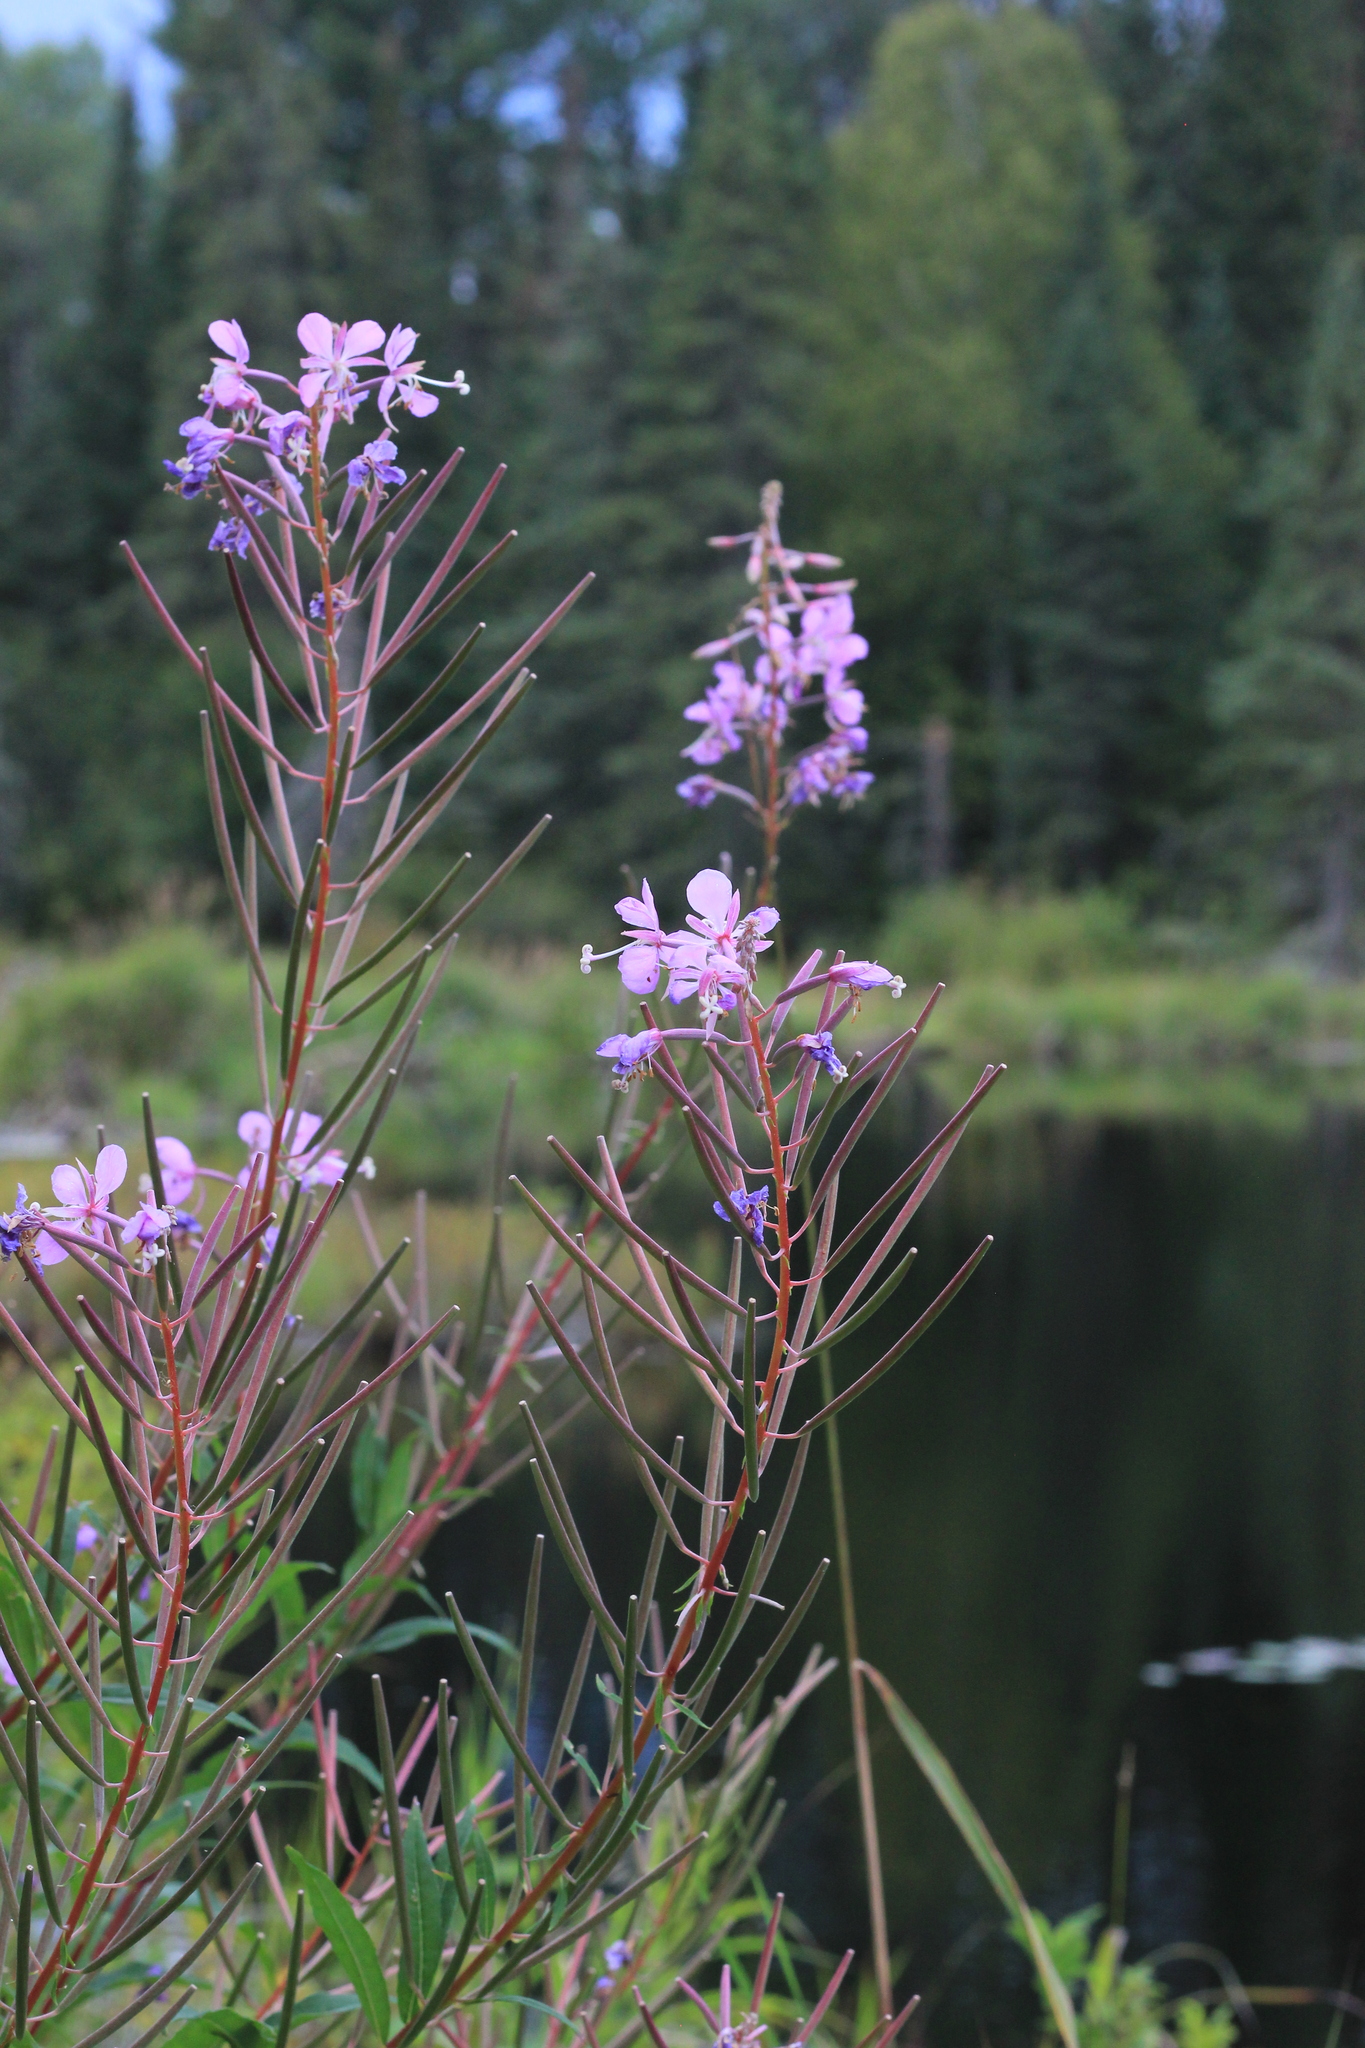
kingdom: Plantae
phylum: Tracheophyta
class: Magnoliopsida
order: Myrtales
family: Onagraceae
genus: Chamaenerion
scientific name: Chamaenerion angustifolium
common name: Fireweed
